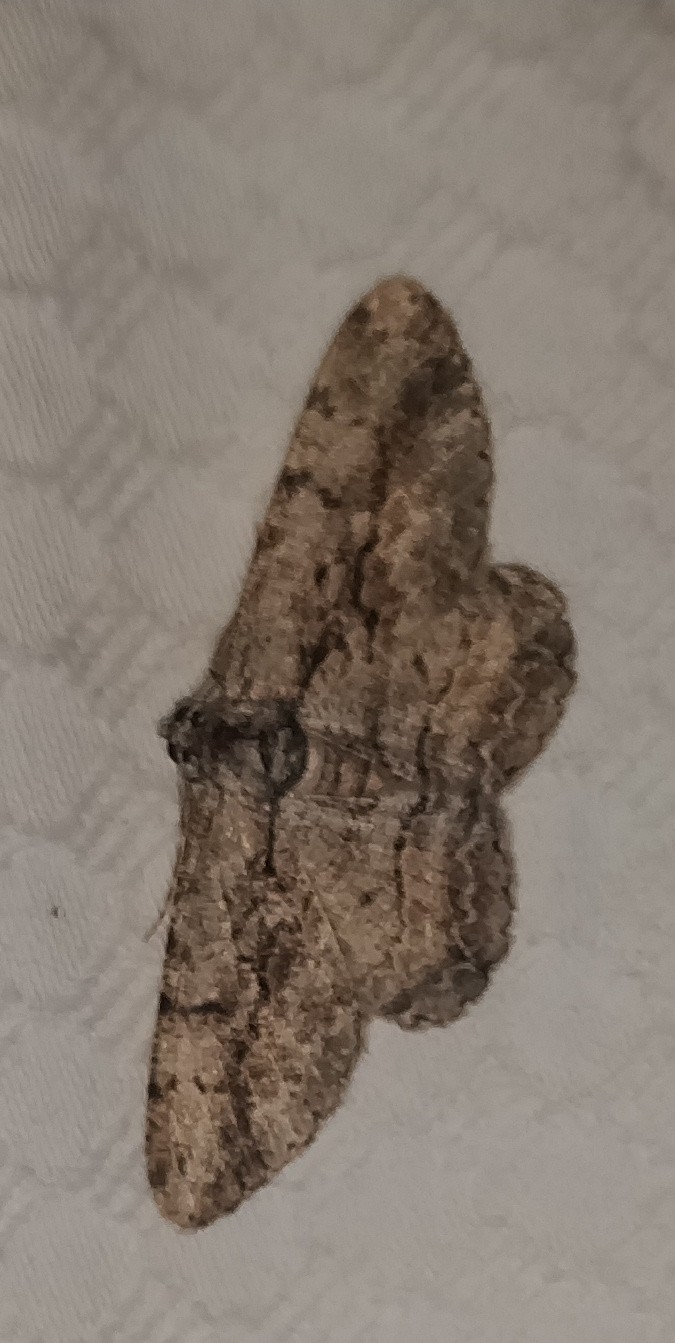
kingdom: Animalia
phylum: Arthropoda
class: Insecta
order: Lepidoptera
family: Geometridae
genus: Anavitrinella
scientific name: Anavitrinella pampinaria
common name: Common gray
